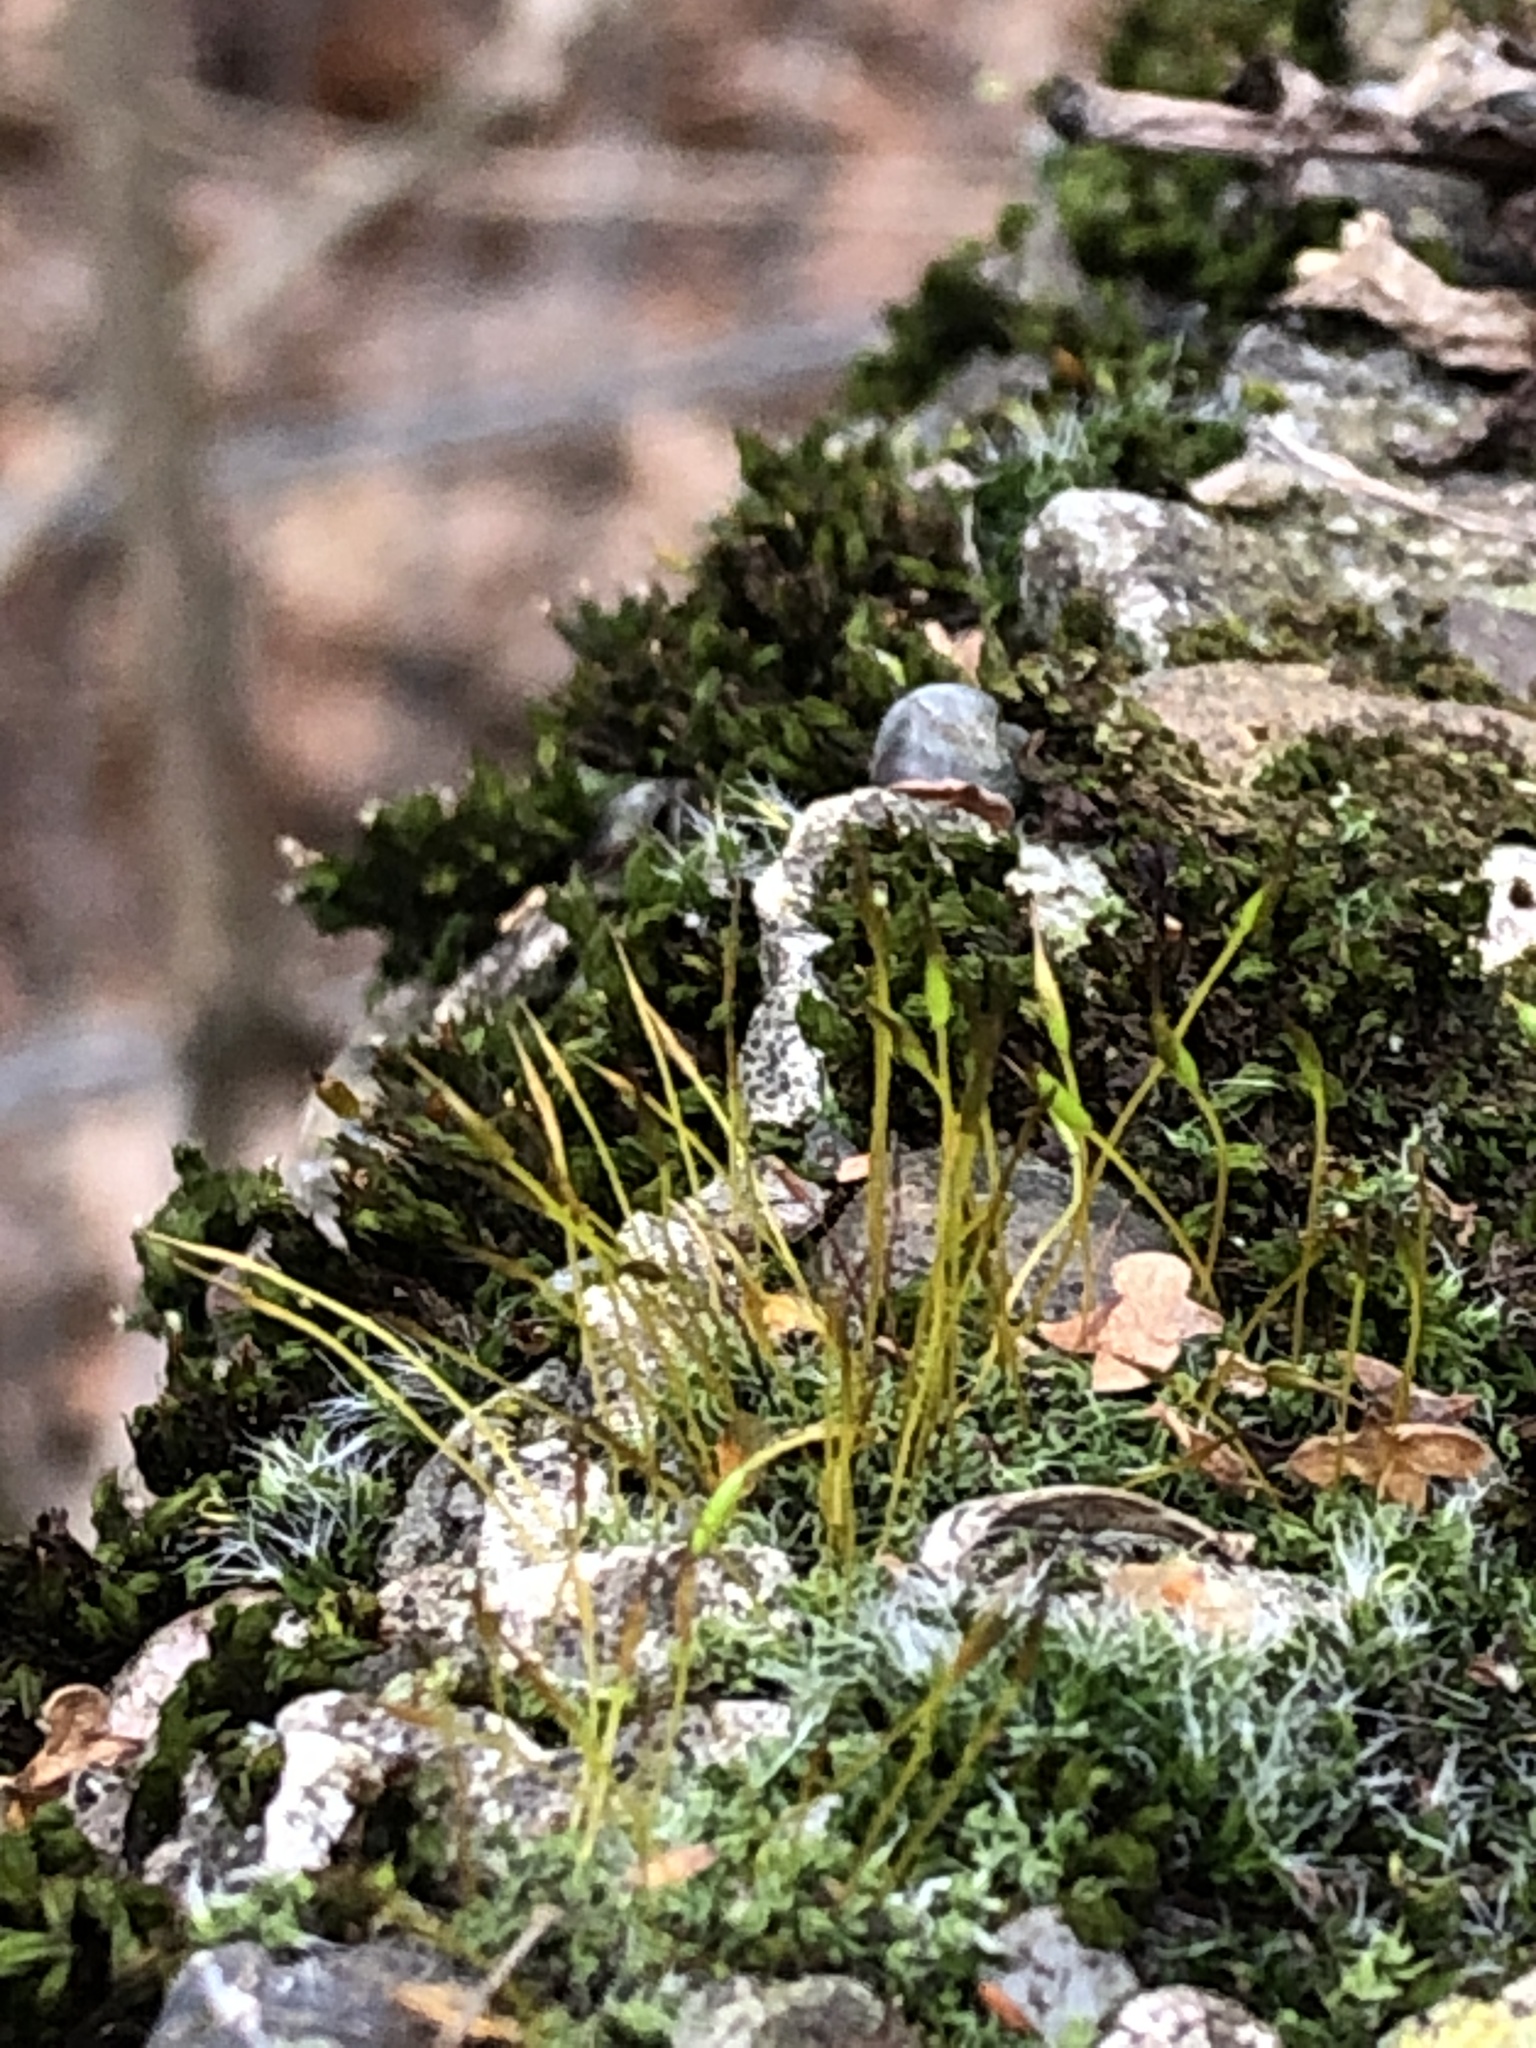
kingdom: Plantae
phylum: Bryophyta
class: Bryopsida
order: Pottiales
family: Pottiaceae
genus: Tortula
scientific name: Tortula muralis
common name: Wall screw-moss
